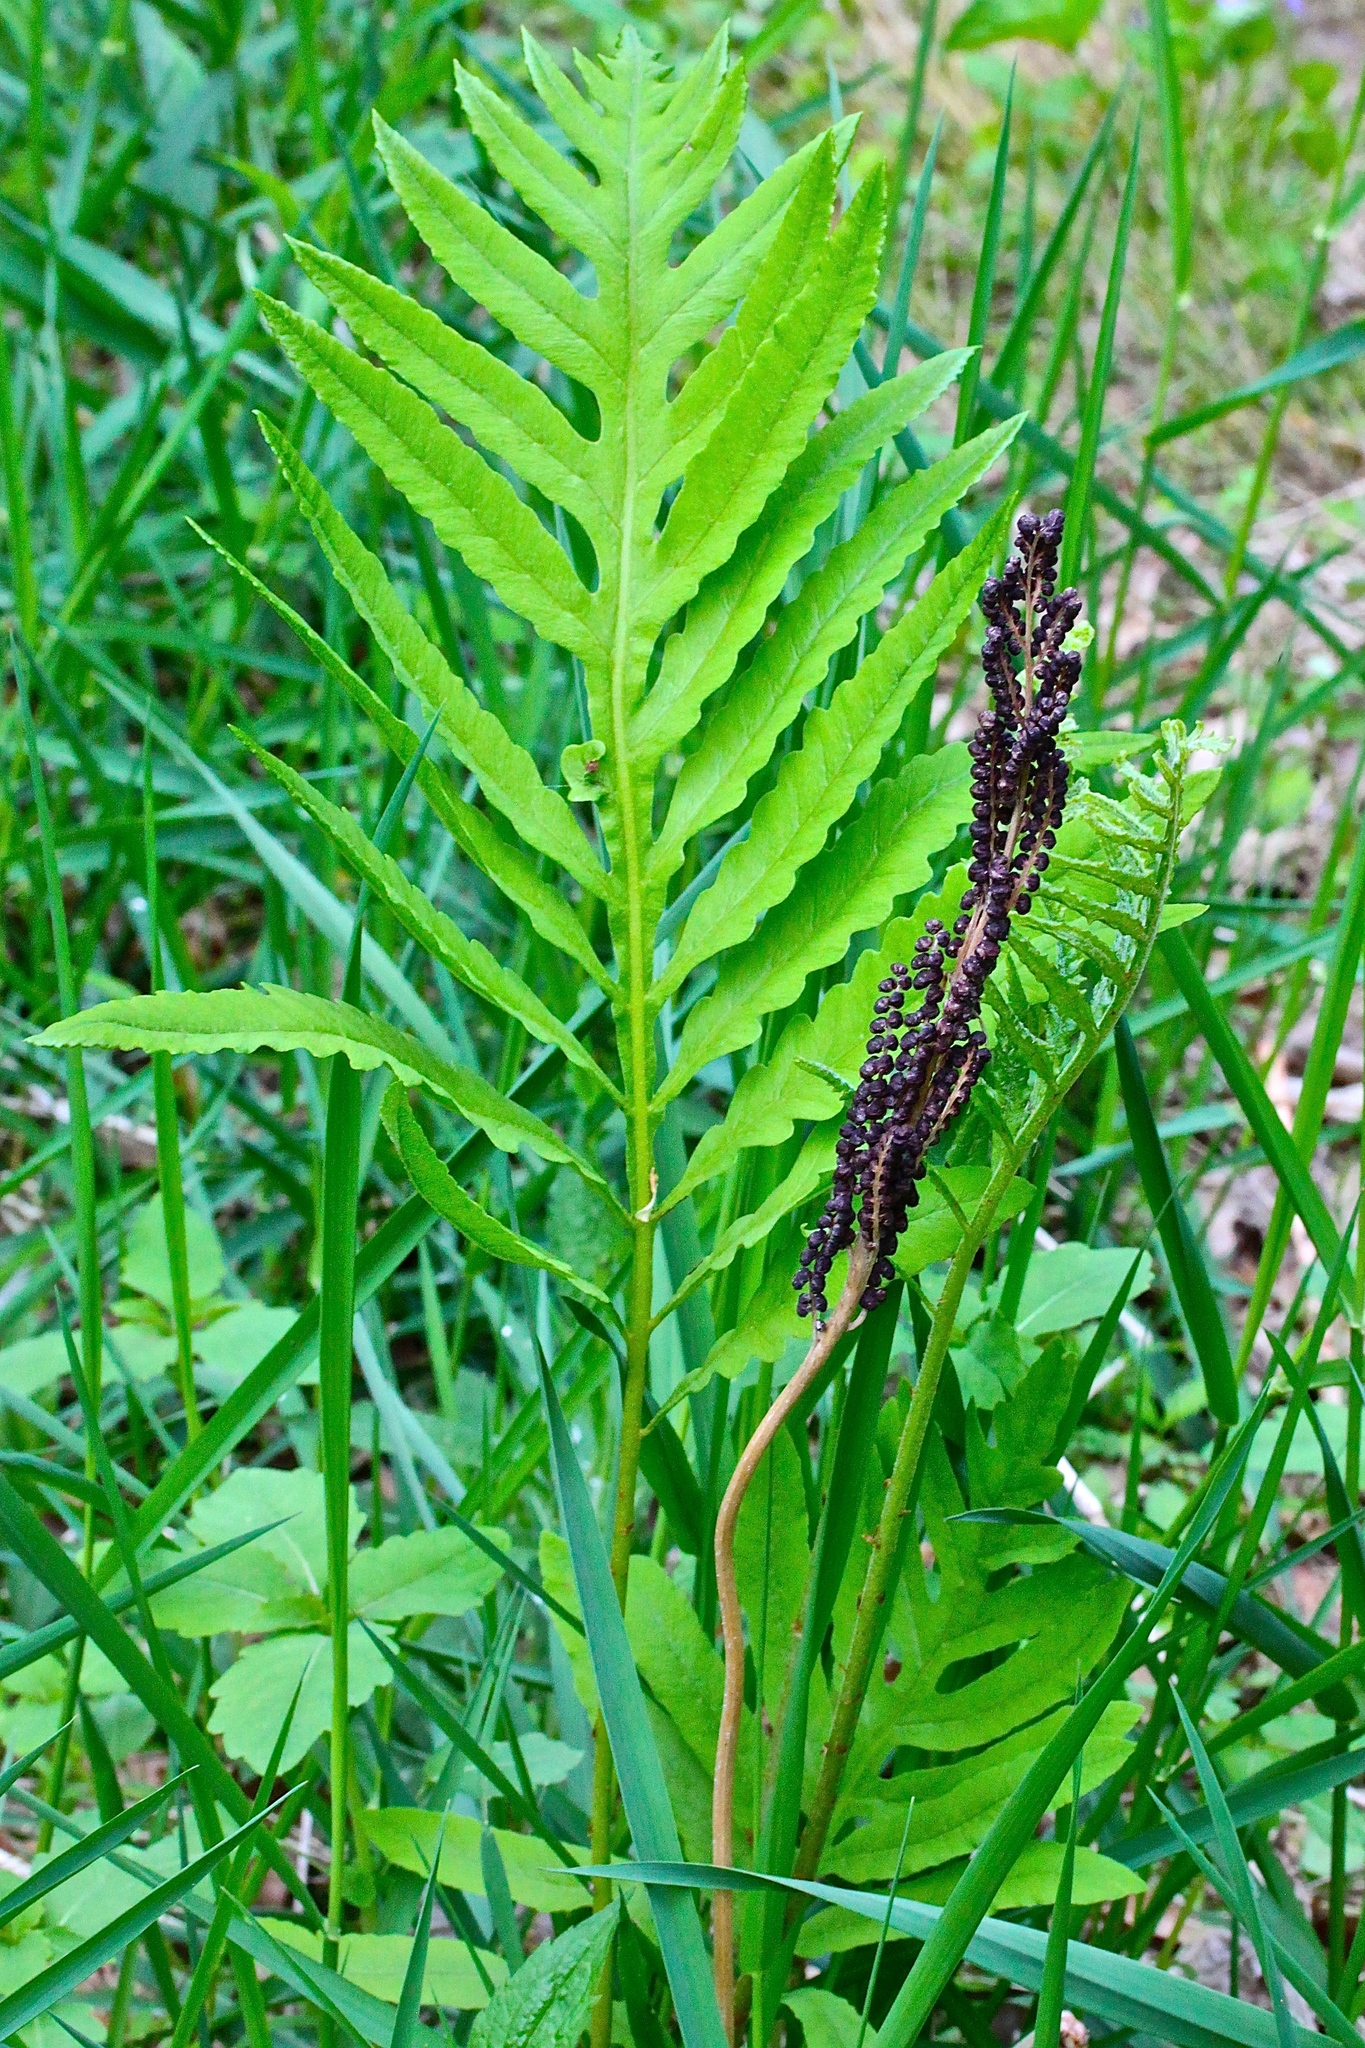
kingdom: Plantae
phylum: Tracheophyta
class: Polypodiopsida
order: Polypodiales
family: Onocleaceae
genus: Onoclea
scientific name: Onoclea sensibilis
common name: Sensitive fern
